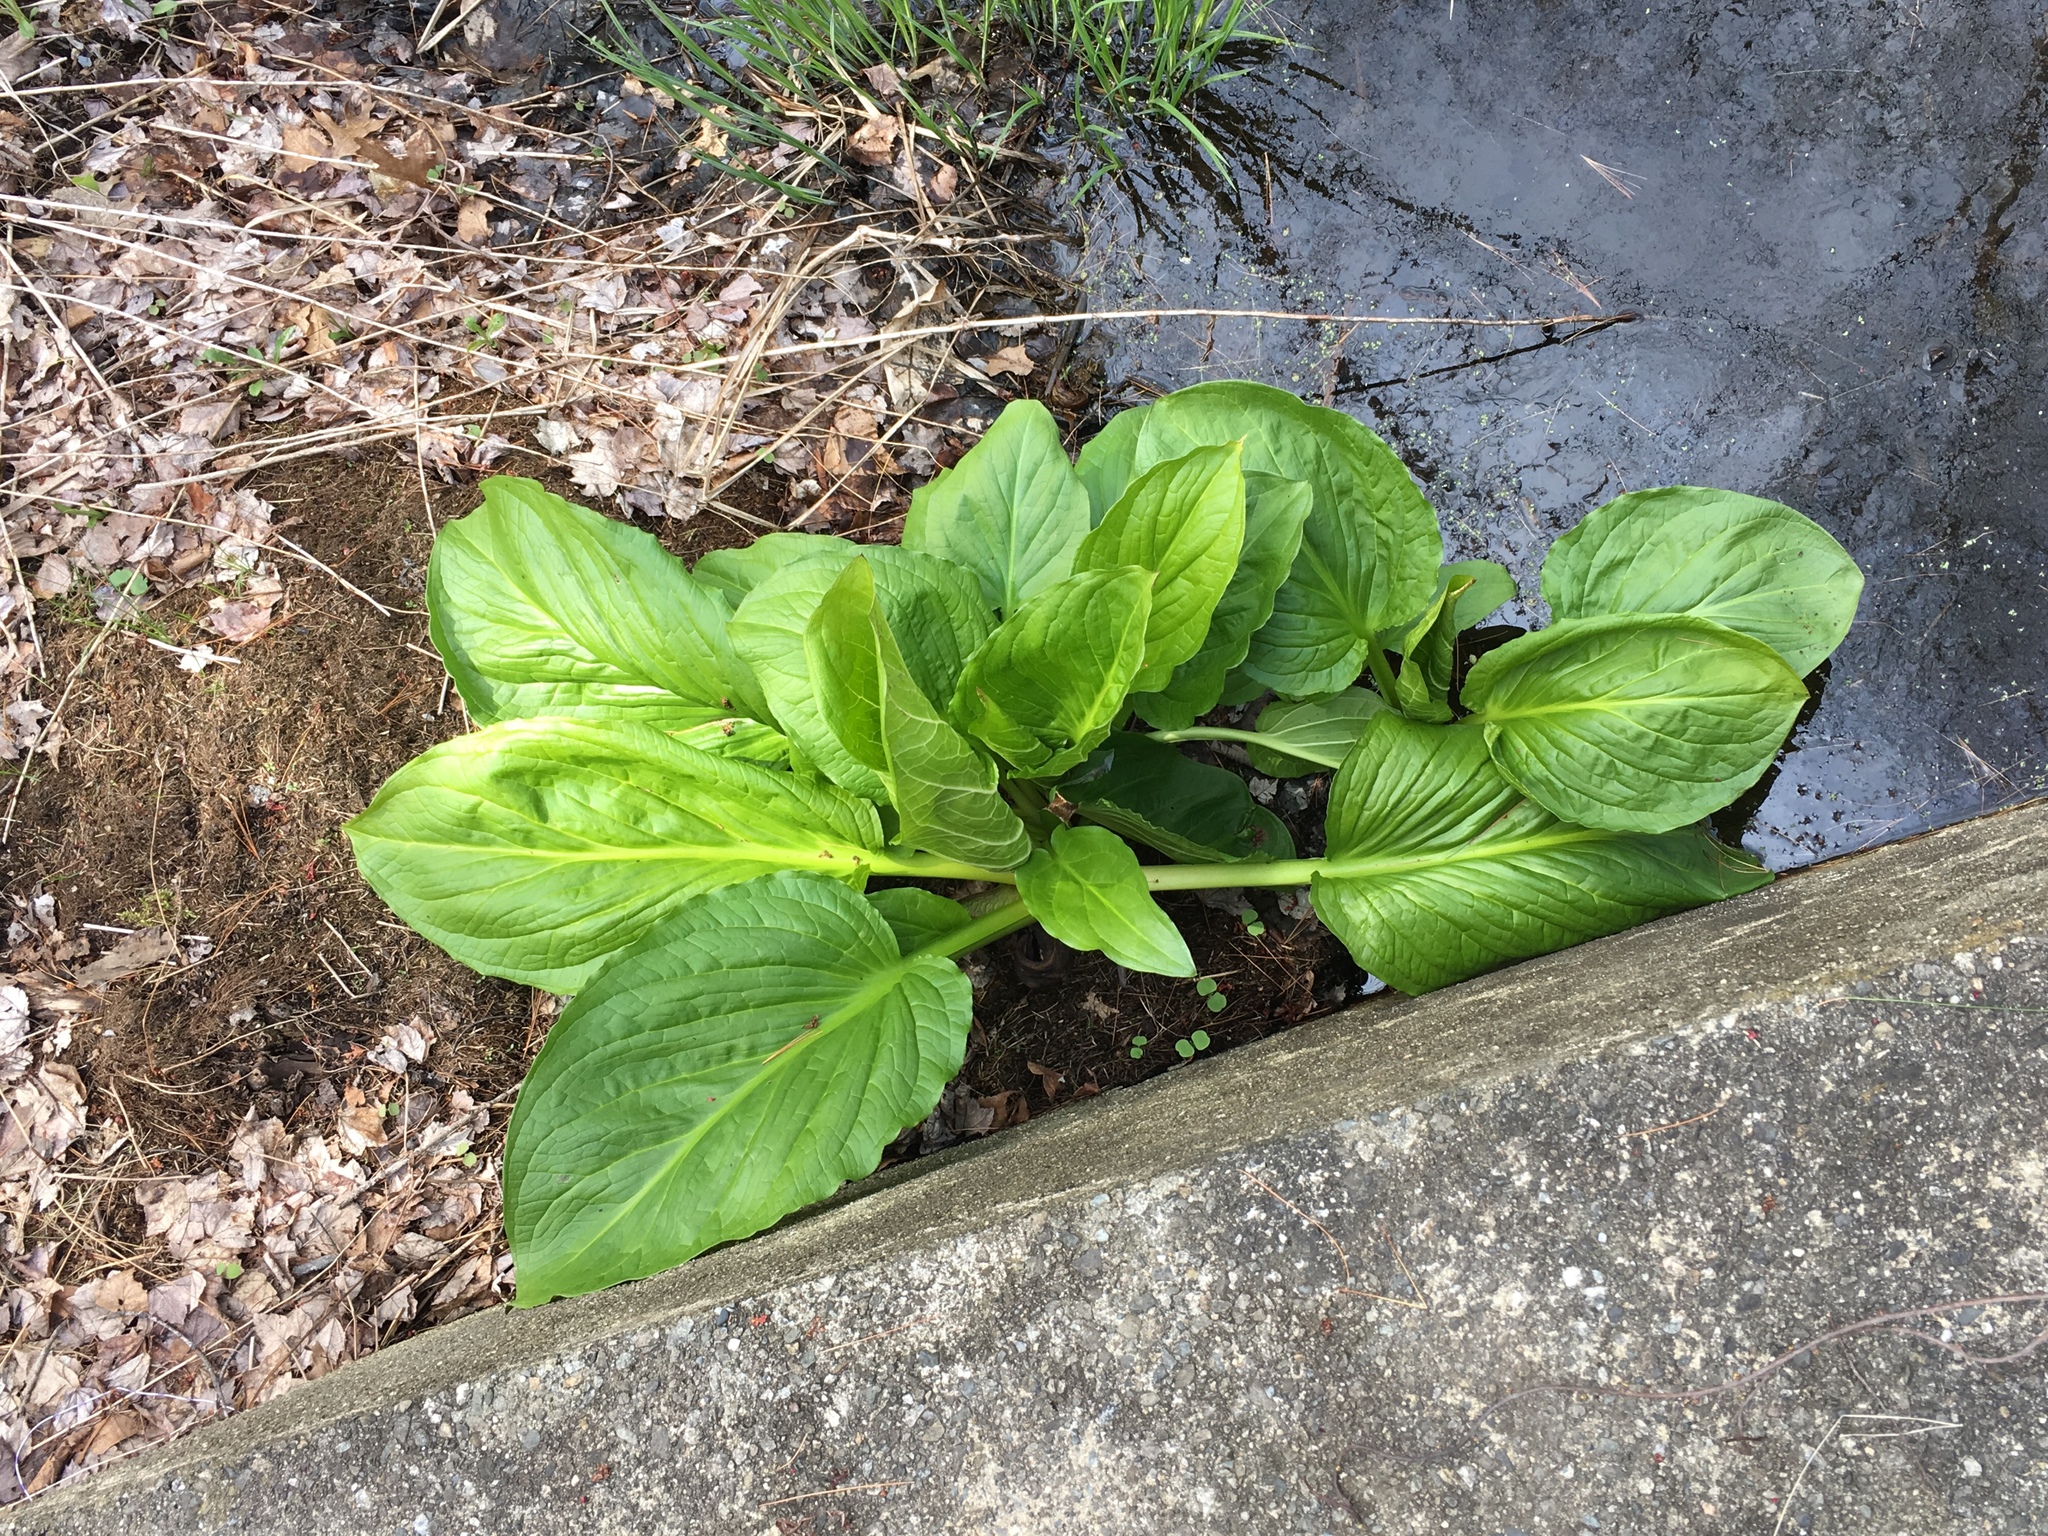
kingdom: Plantae
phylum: Tracheophyta
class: Liliopsida
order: Alismatales
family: Araceae
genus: Symplocarpus
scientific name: Symplocarpus foetidus
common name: Eastern skunk cabbage
